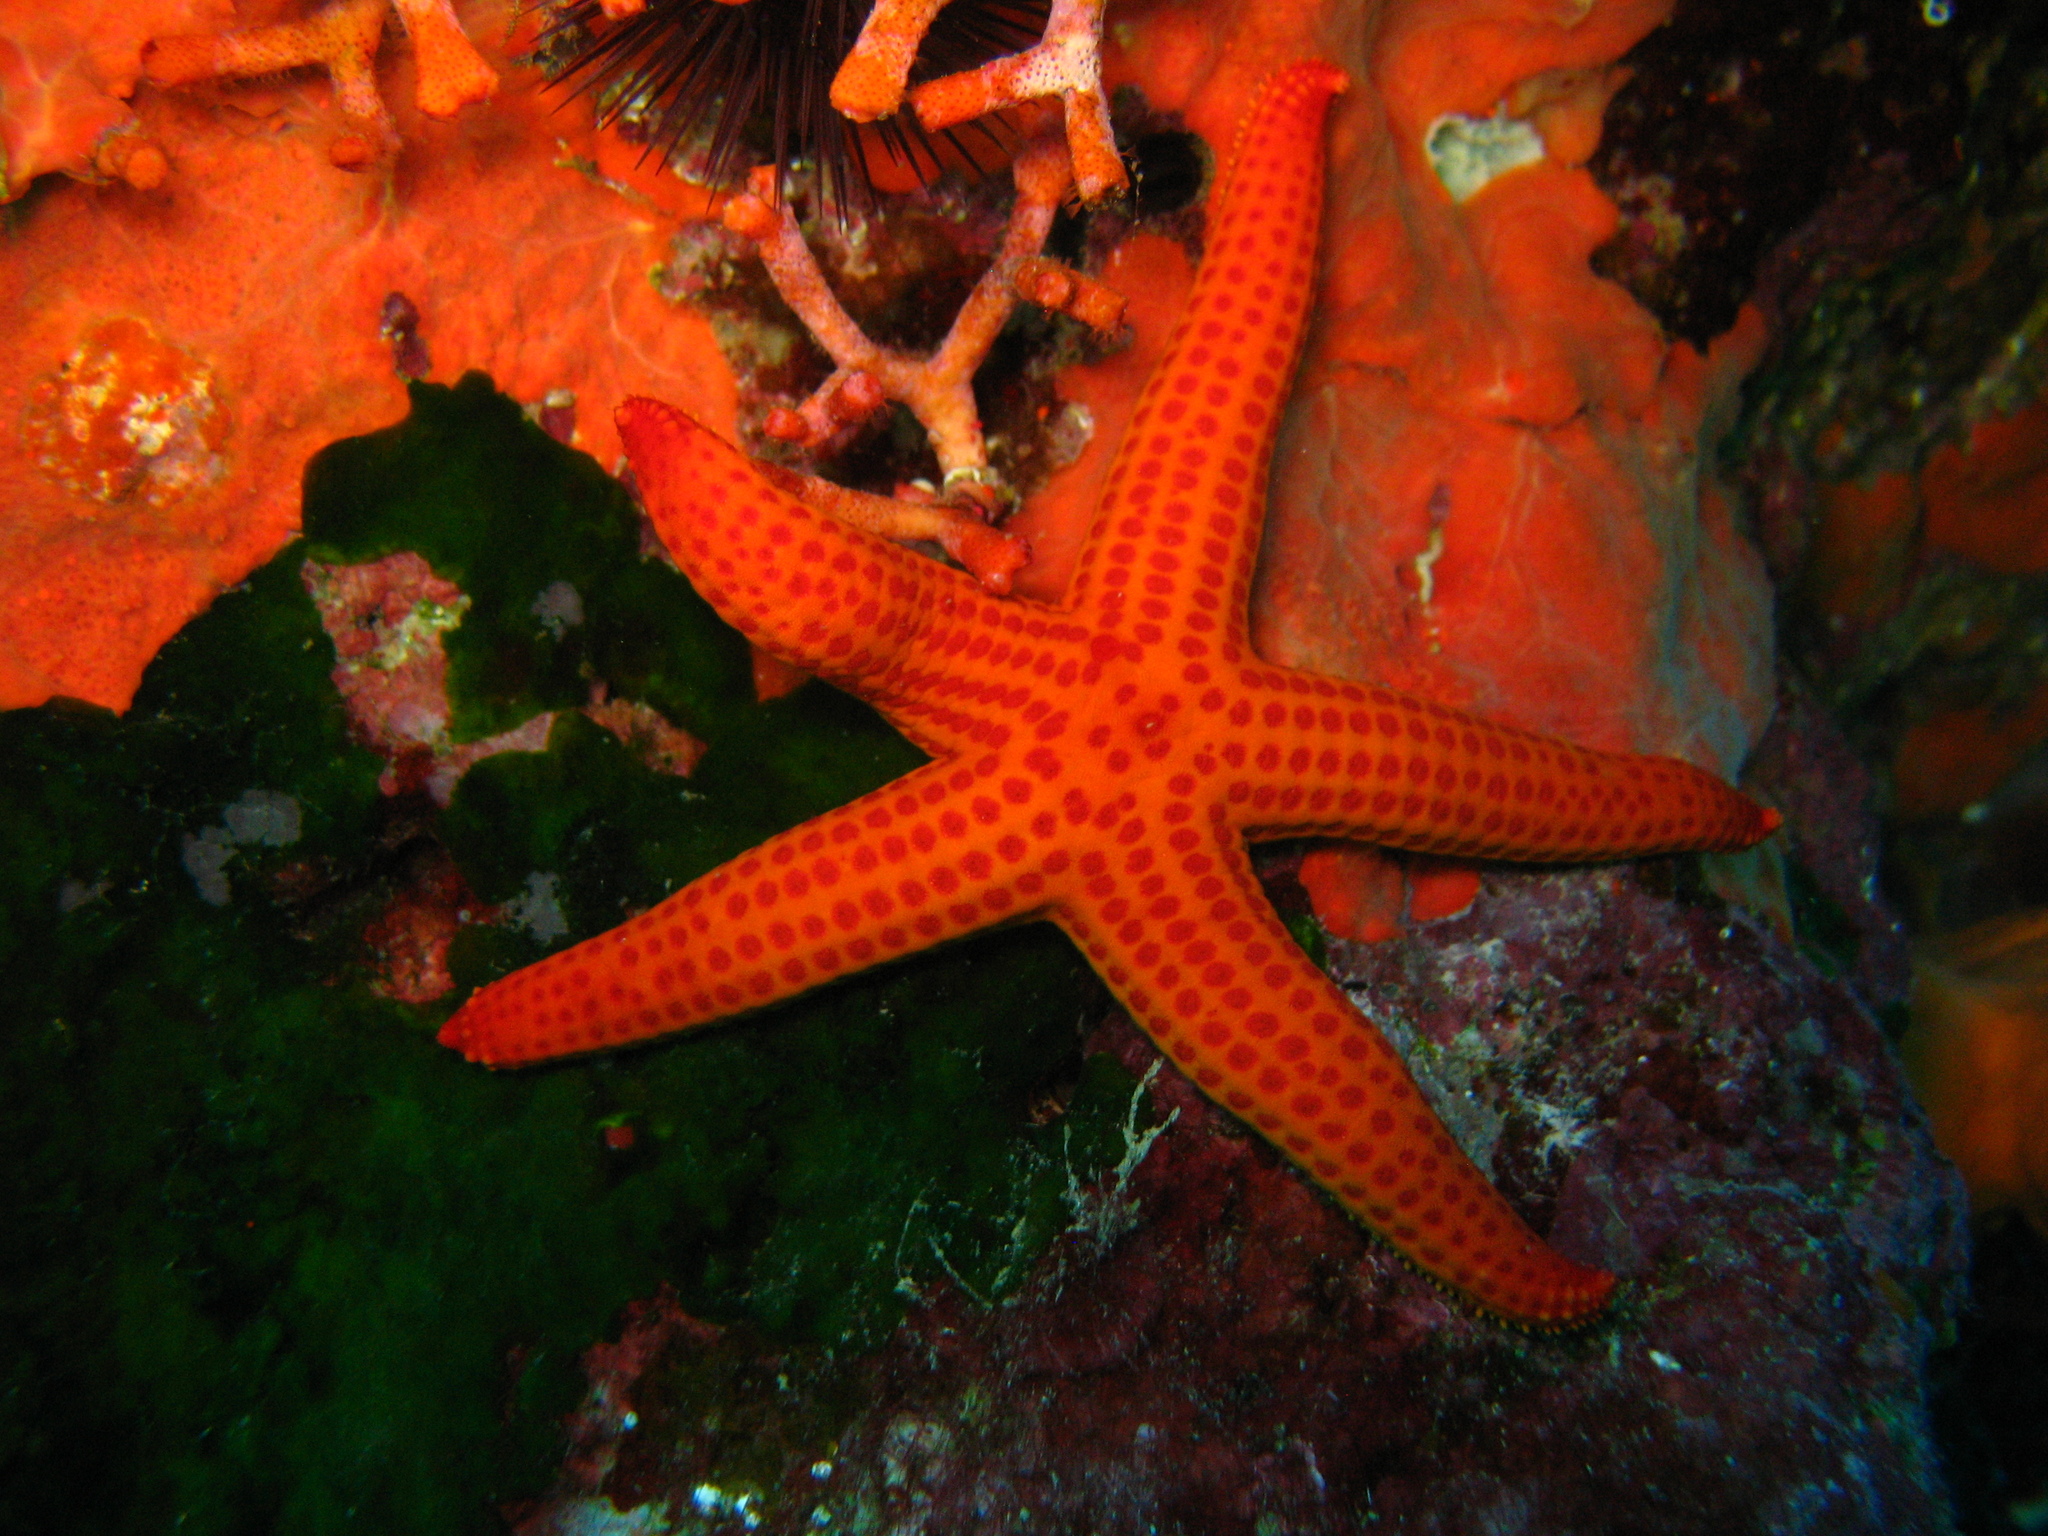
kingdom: Animalia
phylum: Echinodermata
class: Asteroidea
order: Valvatida
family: Ophidiasteridae
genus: Hacelia
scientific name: Hacelia attenuata
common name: Smooth starfish
